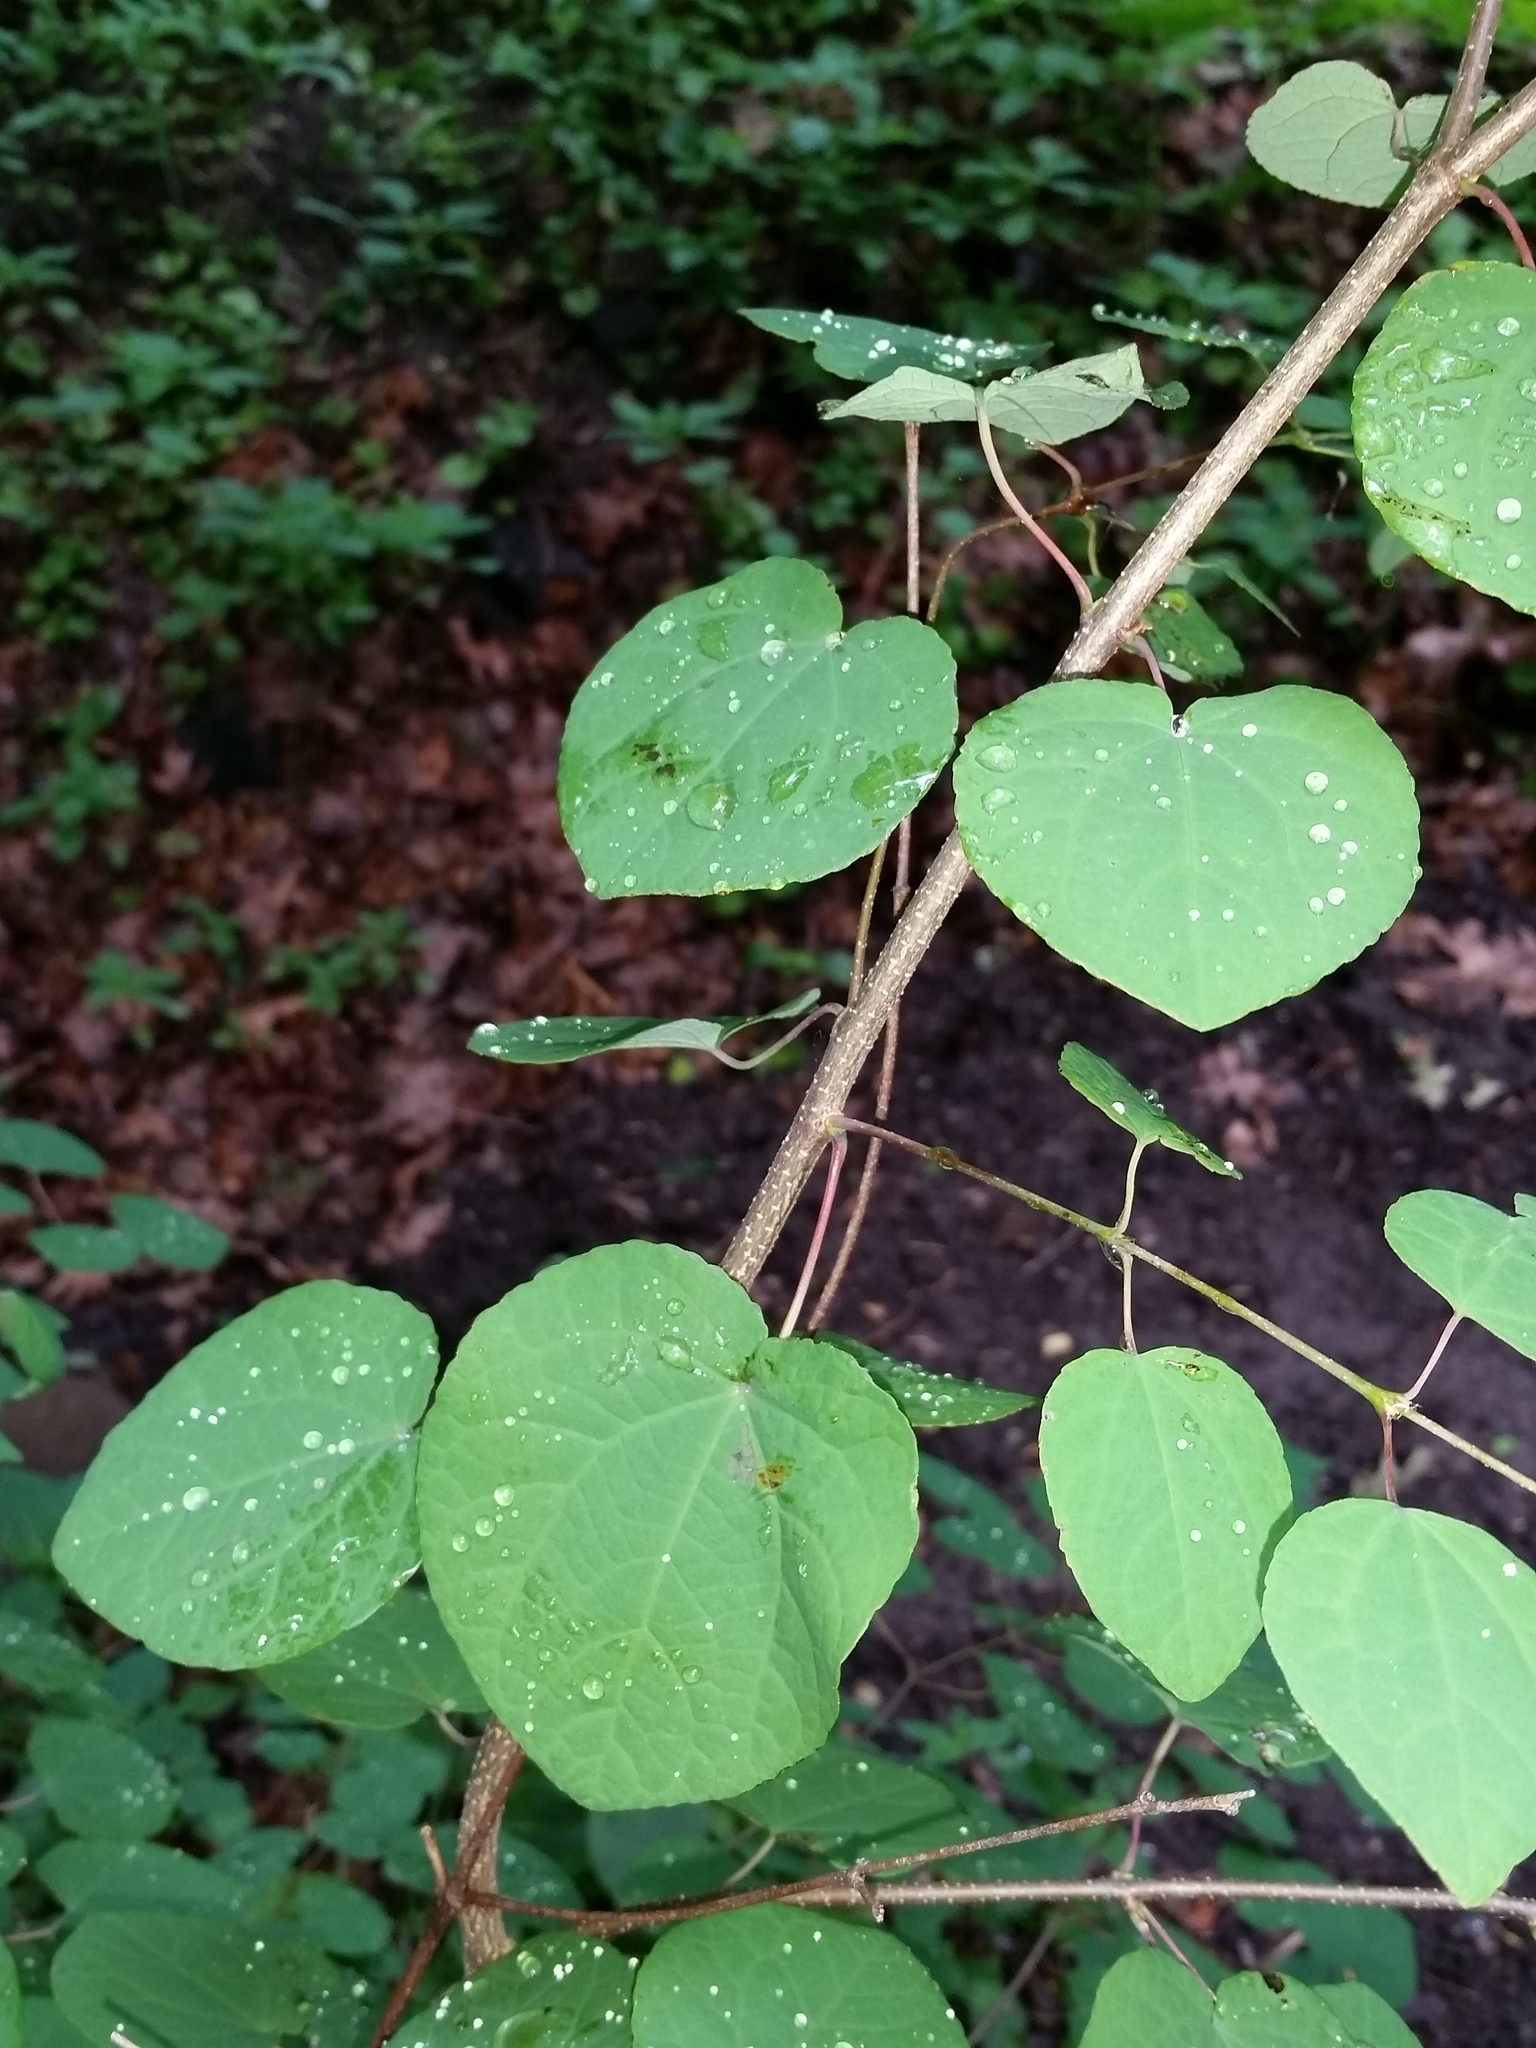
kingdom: Plantae
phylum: Tracheophyta
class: Magnoliopsida
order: Saxifragales
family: Cercidiphyllaceae
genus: Cercidiphyllum
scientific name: Cercidiphyllum japonicum
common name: Katsura tree
